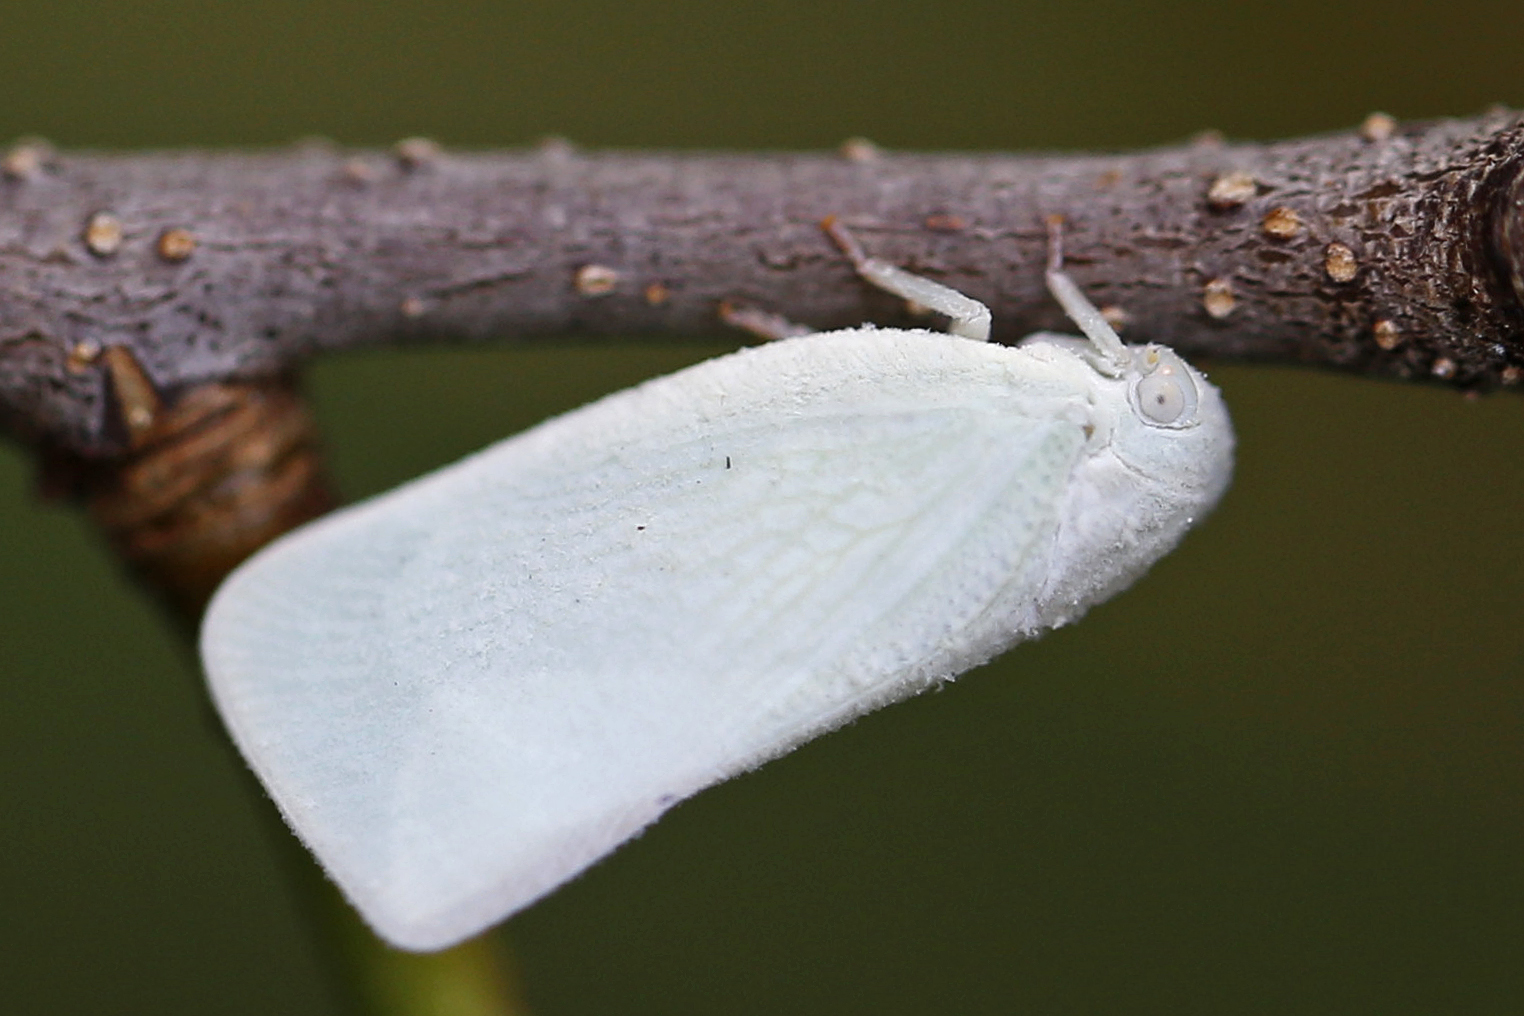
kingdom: Animalia
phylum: Arthropoda
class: Insecta
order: Hemiptera
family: Flatidae
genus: Flatormenis
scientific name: Flatormenis proxima
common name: Northern flatid planthopper
